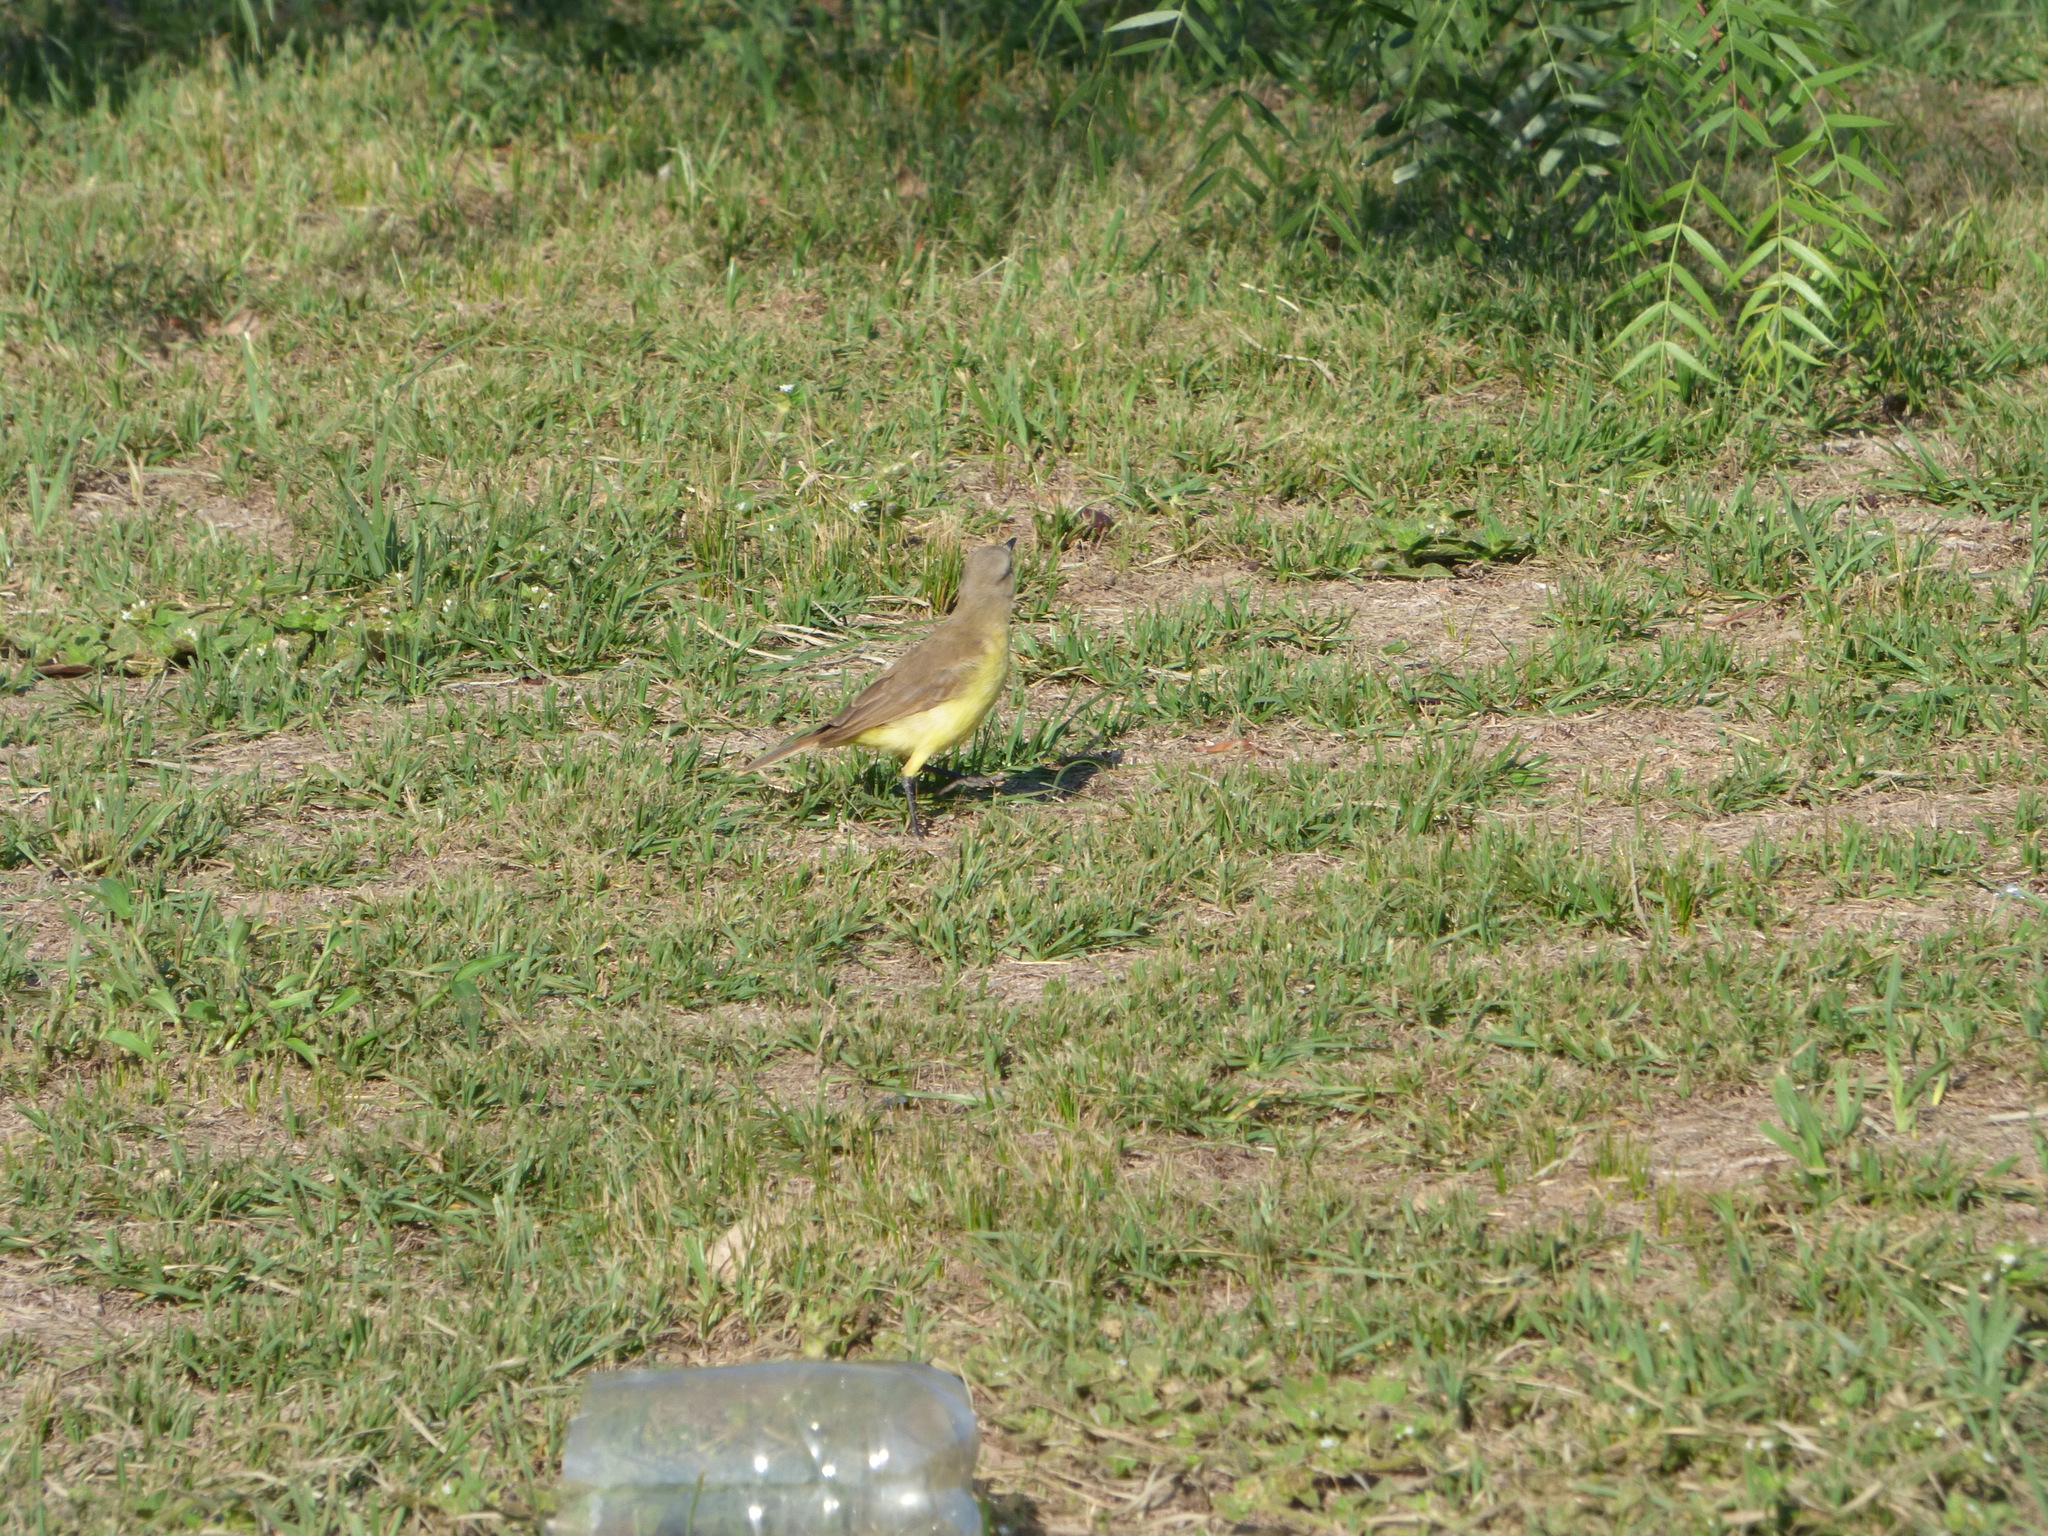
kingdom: Animalia
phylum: Chordata
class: Aves
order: Passeriformes
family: Tyrannidae
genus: Machetornis
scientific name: Machetornis rixosa
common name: Cattle tyrant
